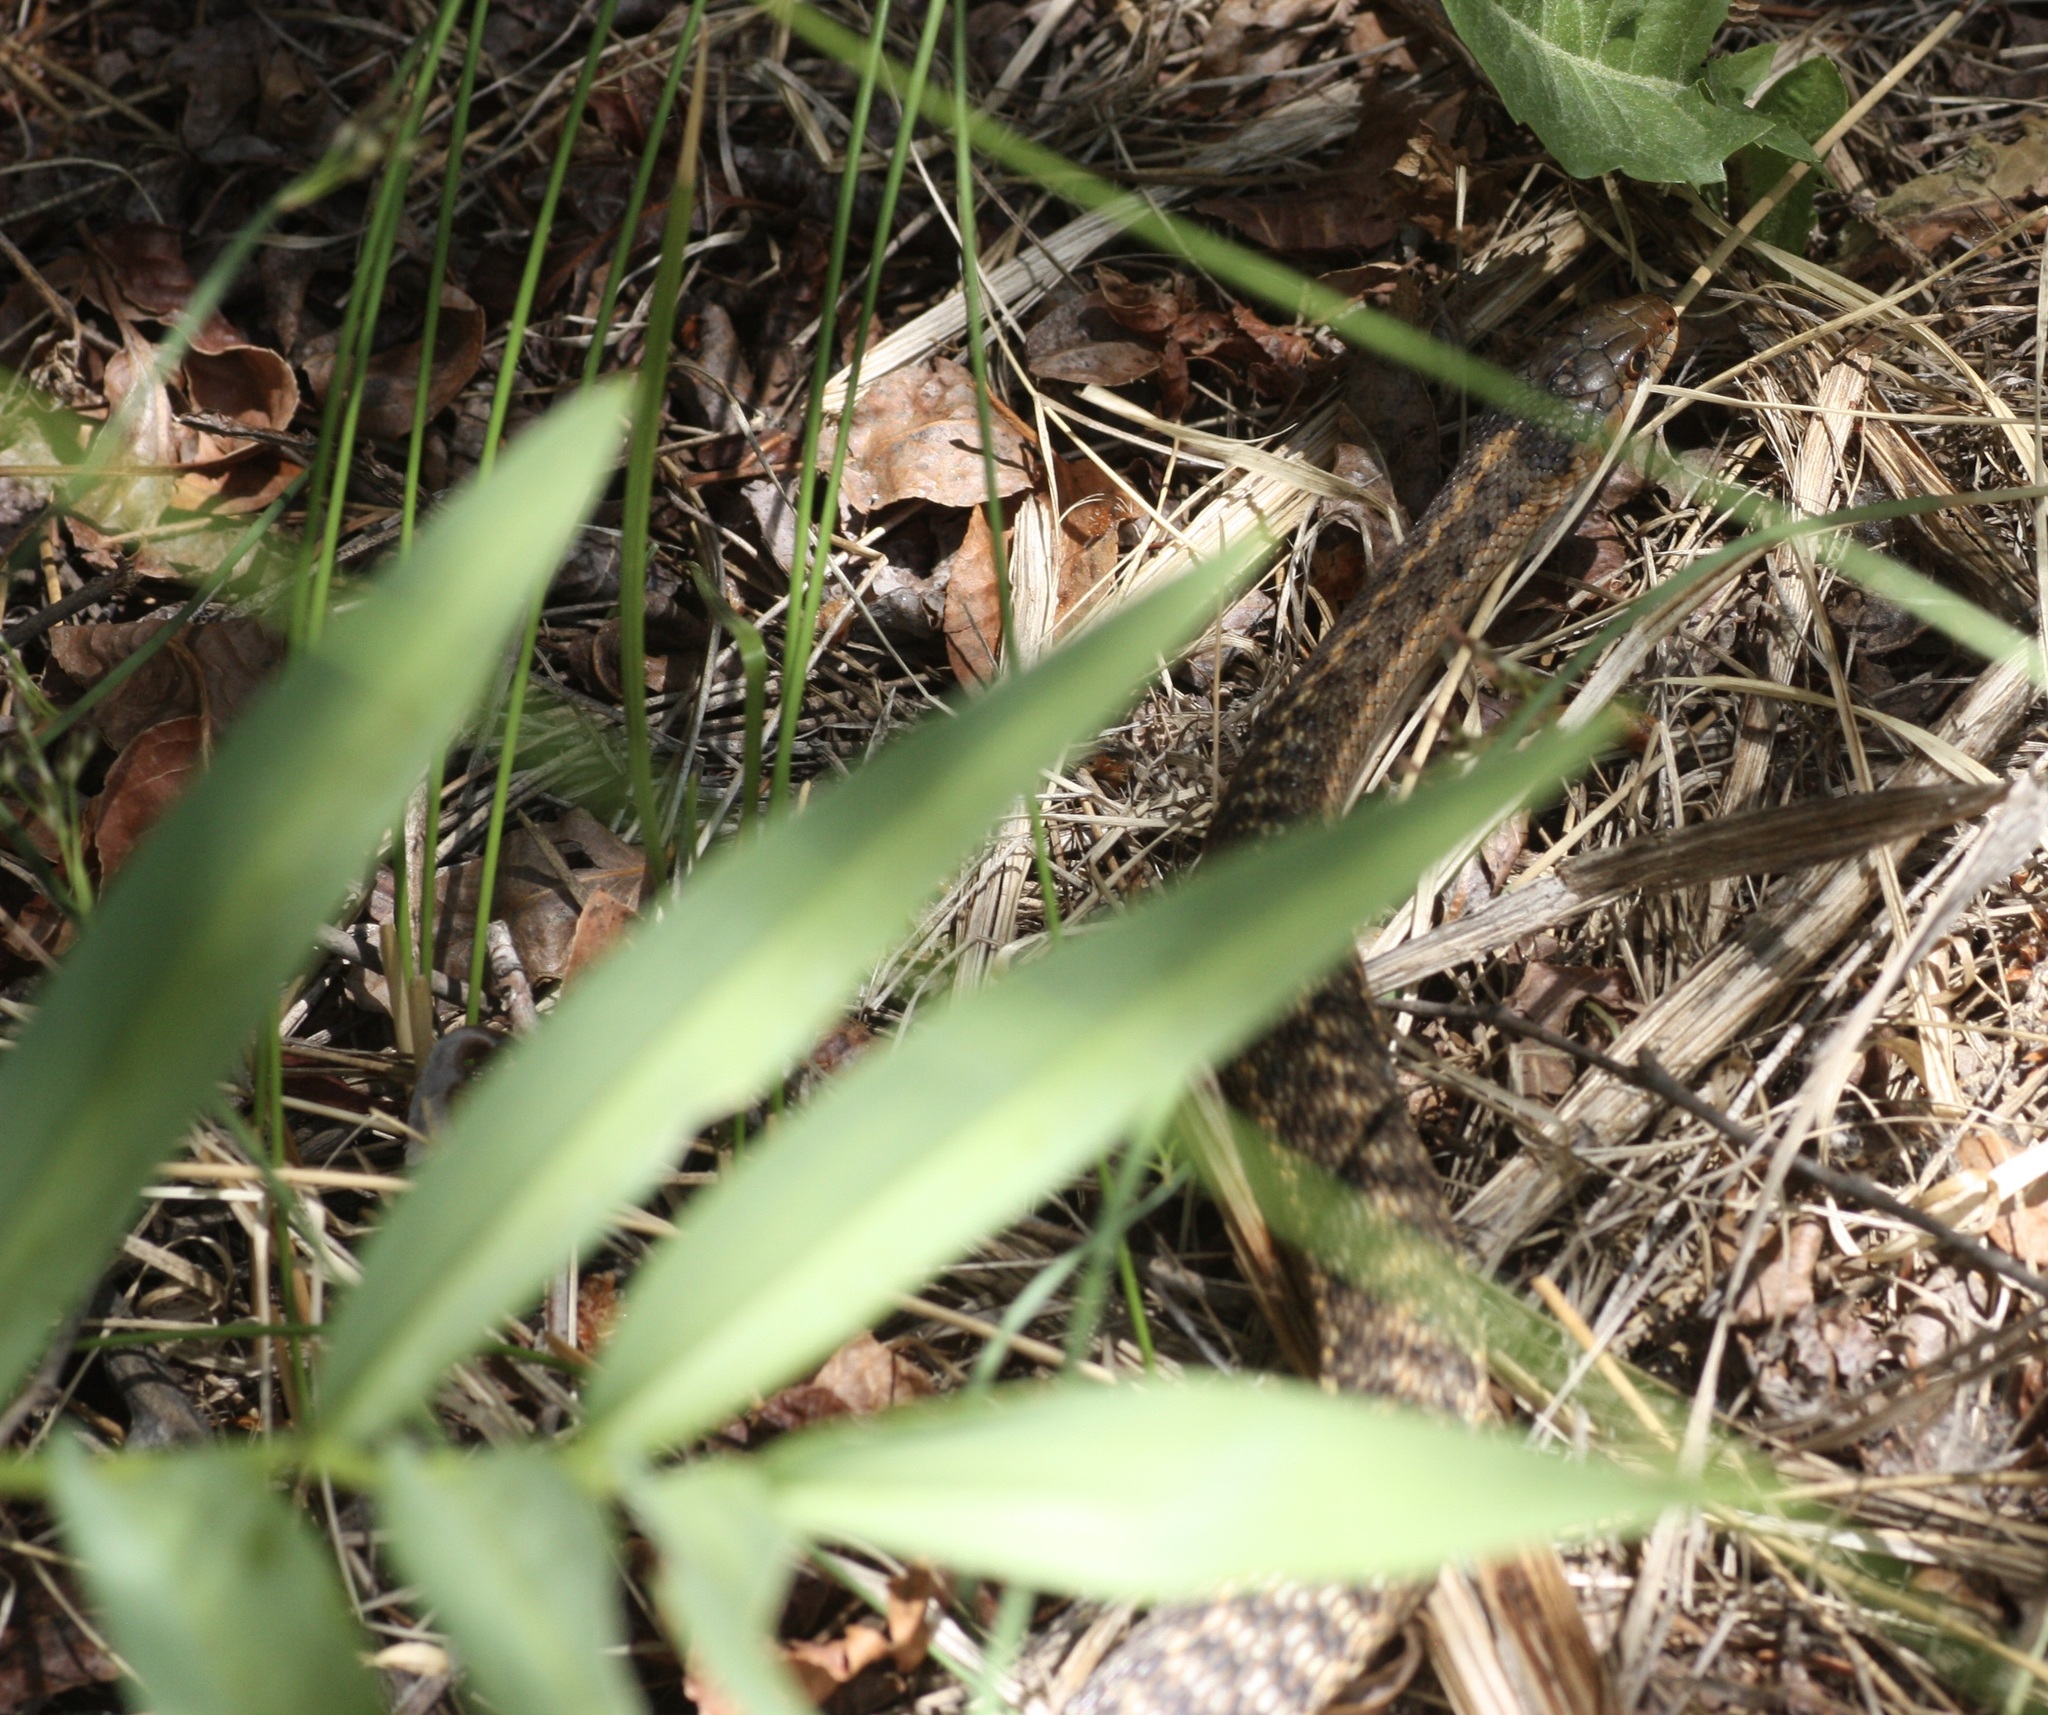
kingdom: Animalia
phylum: Chordata
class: Squamata
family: Colubridae
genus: Thamnophis
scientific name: Thamnophis elegans
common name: Western terrestrial garter snake
